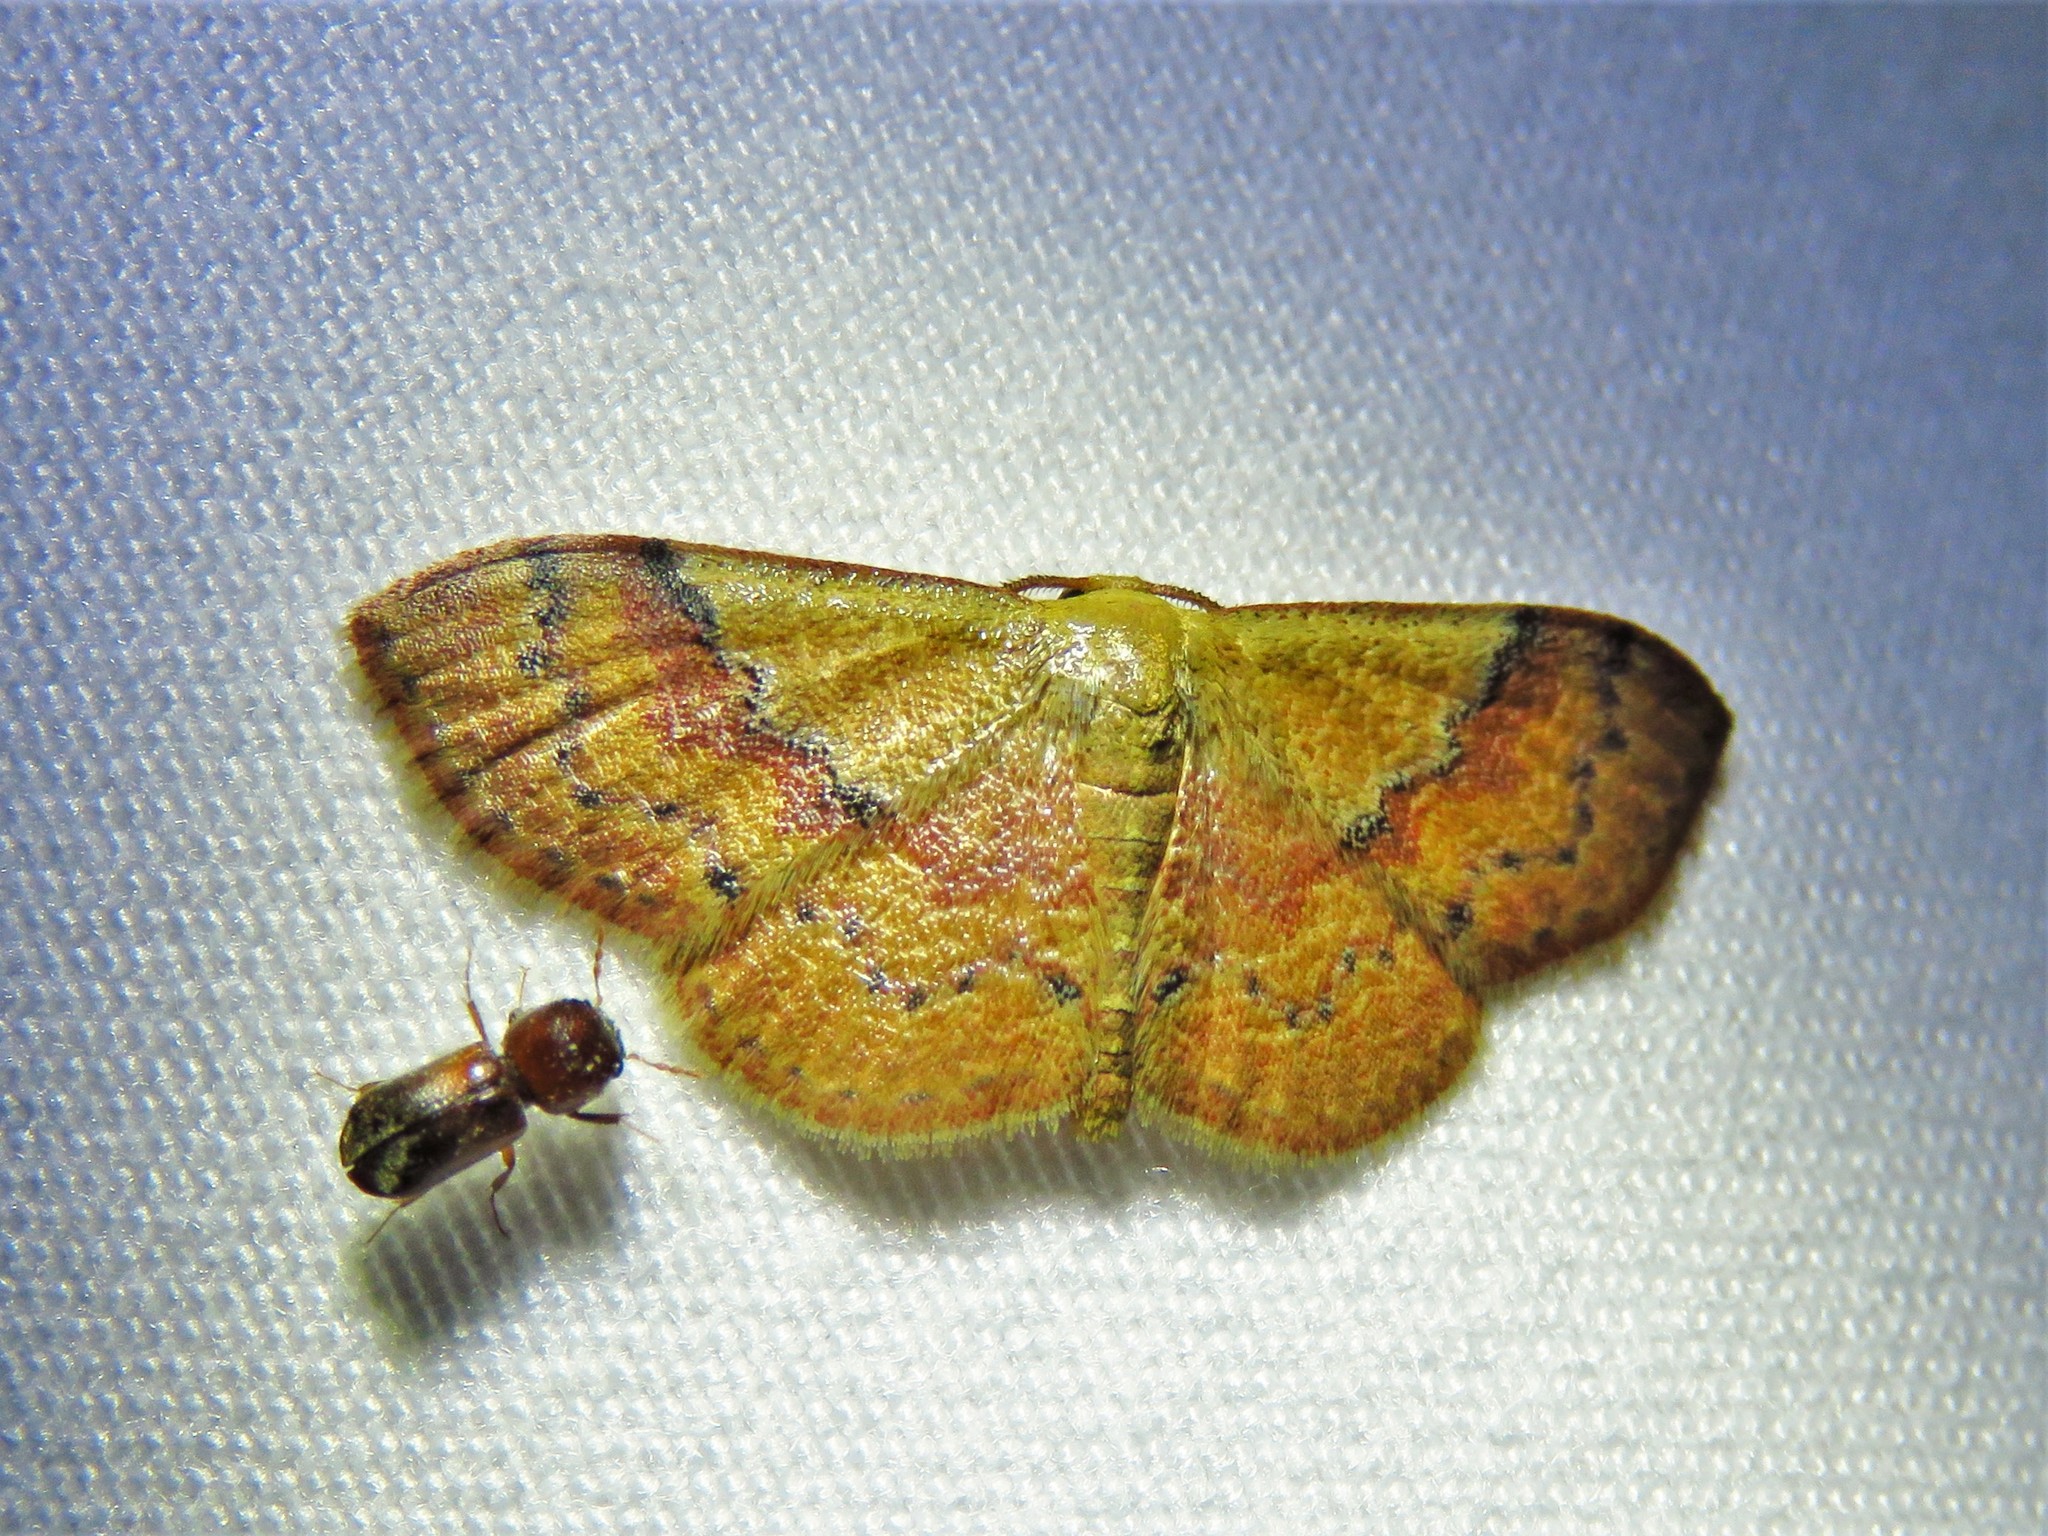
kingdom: Animalia
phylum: Arthropoda
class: Insecta
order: Lepidoptera
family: Geometridae
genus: Leptostales
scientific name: Leptostales ferruminaria
